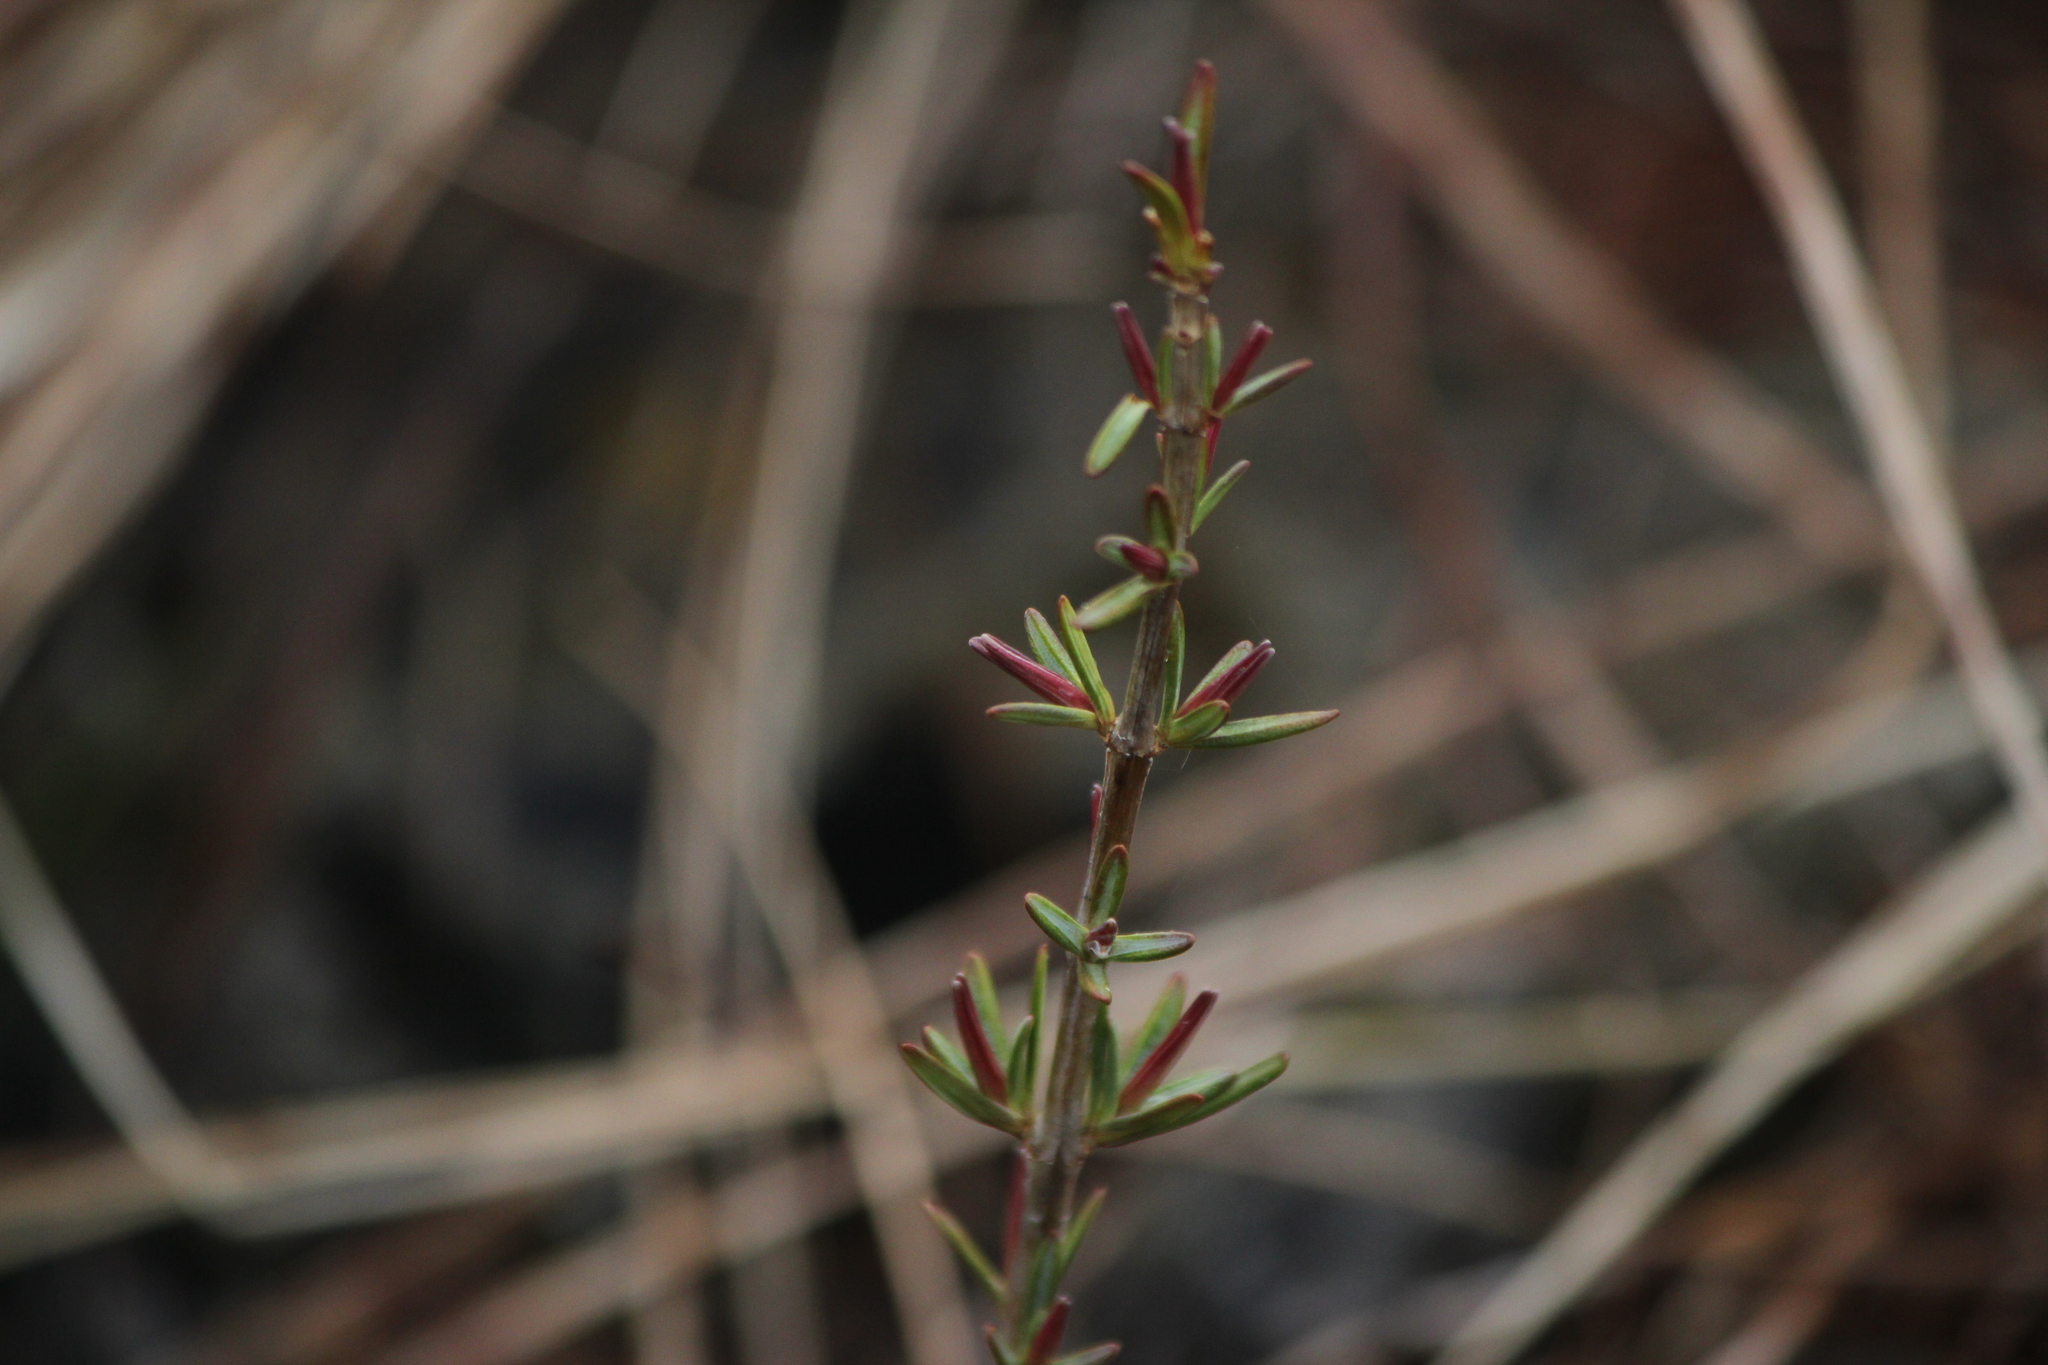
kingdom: Plantae
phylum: Tracheophyta
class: Magnoliopsida
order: Malpighiales
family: Hypericaceae
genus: Hypericum
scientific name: Hypericum kalmianum
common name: Kalm's st. john's-wort
